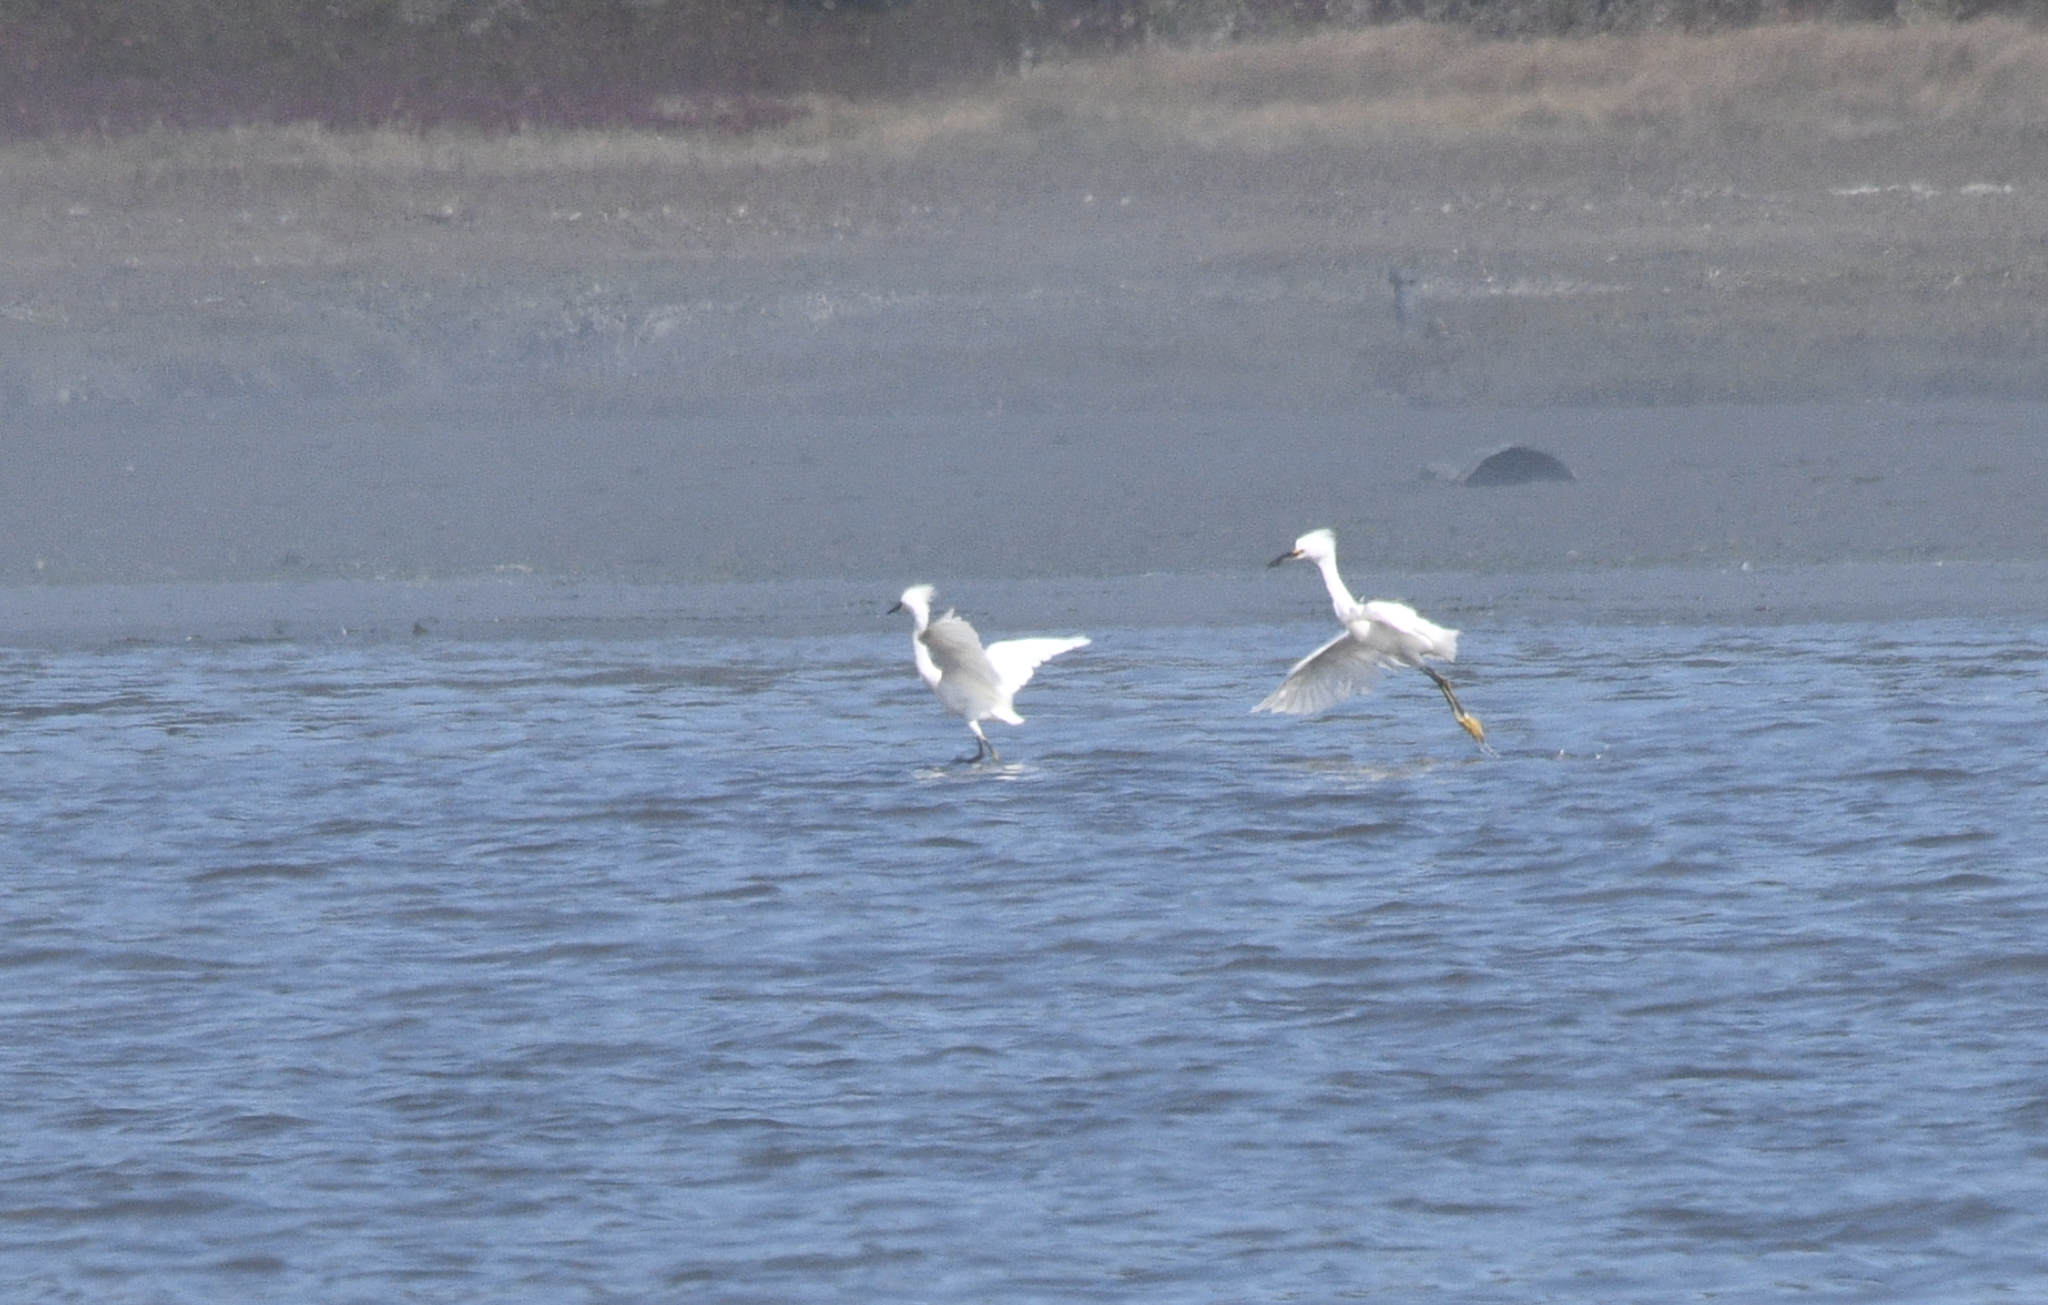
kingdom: Animalia
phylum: Chordata
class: Aves
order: Pelecaniformes
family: Ardeidae
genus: Egretta
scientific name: Egretta thula
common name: Snowy egret
